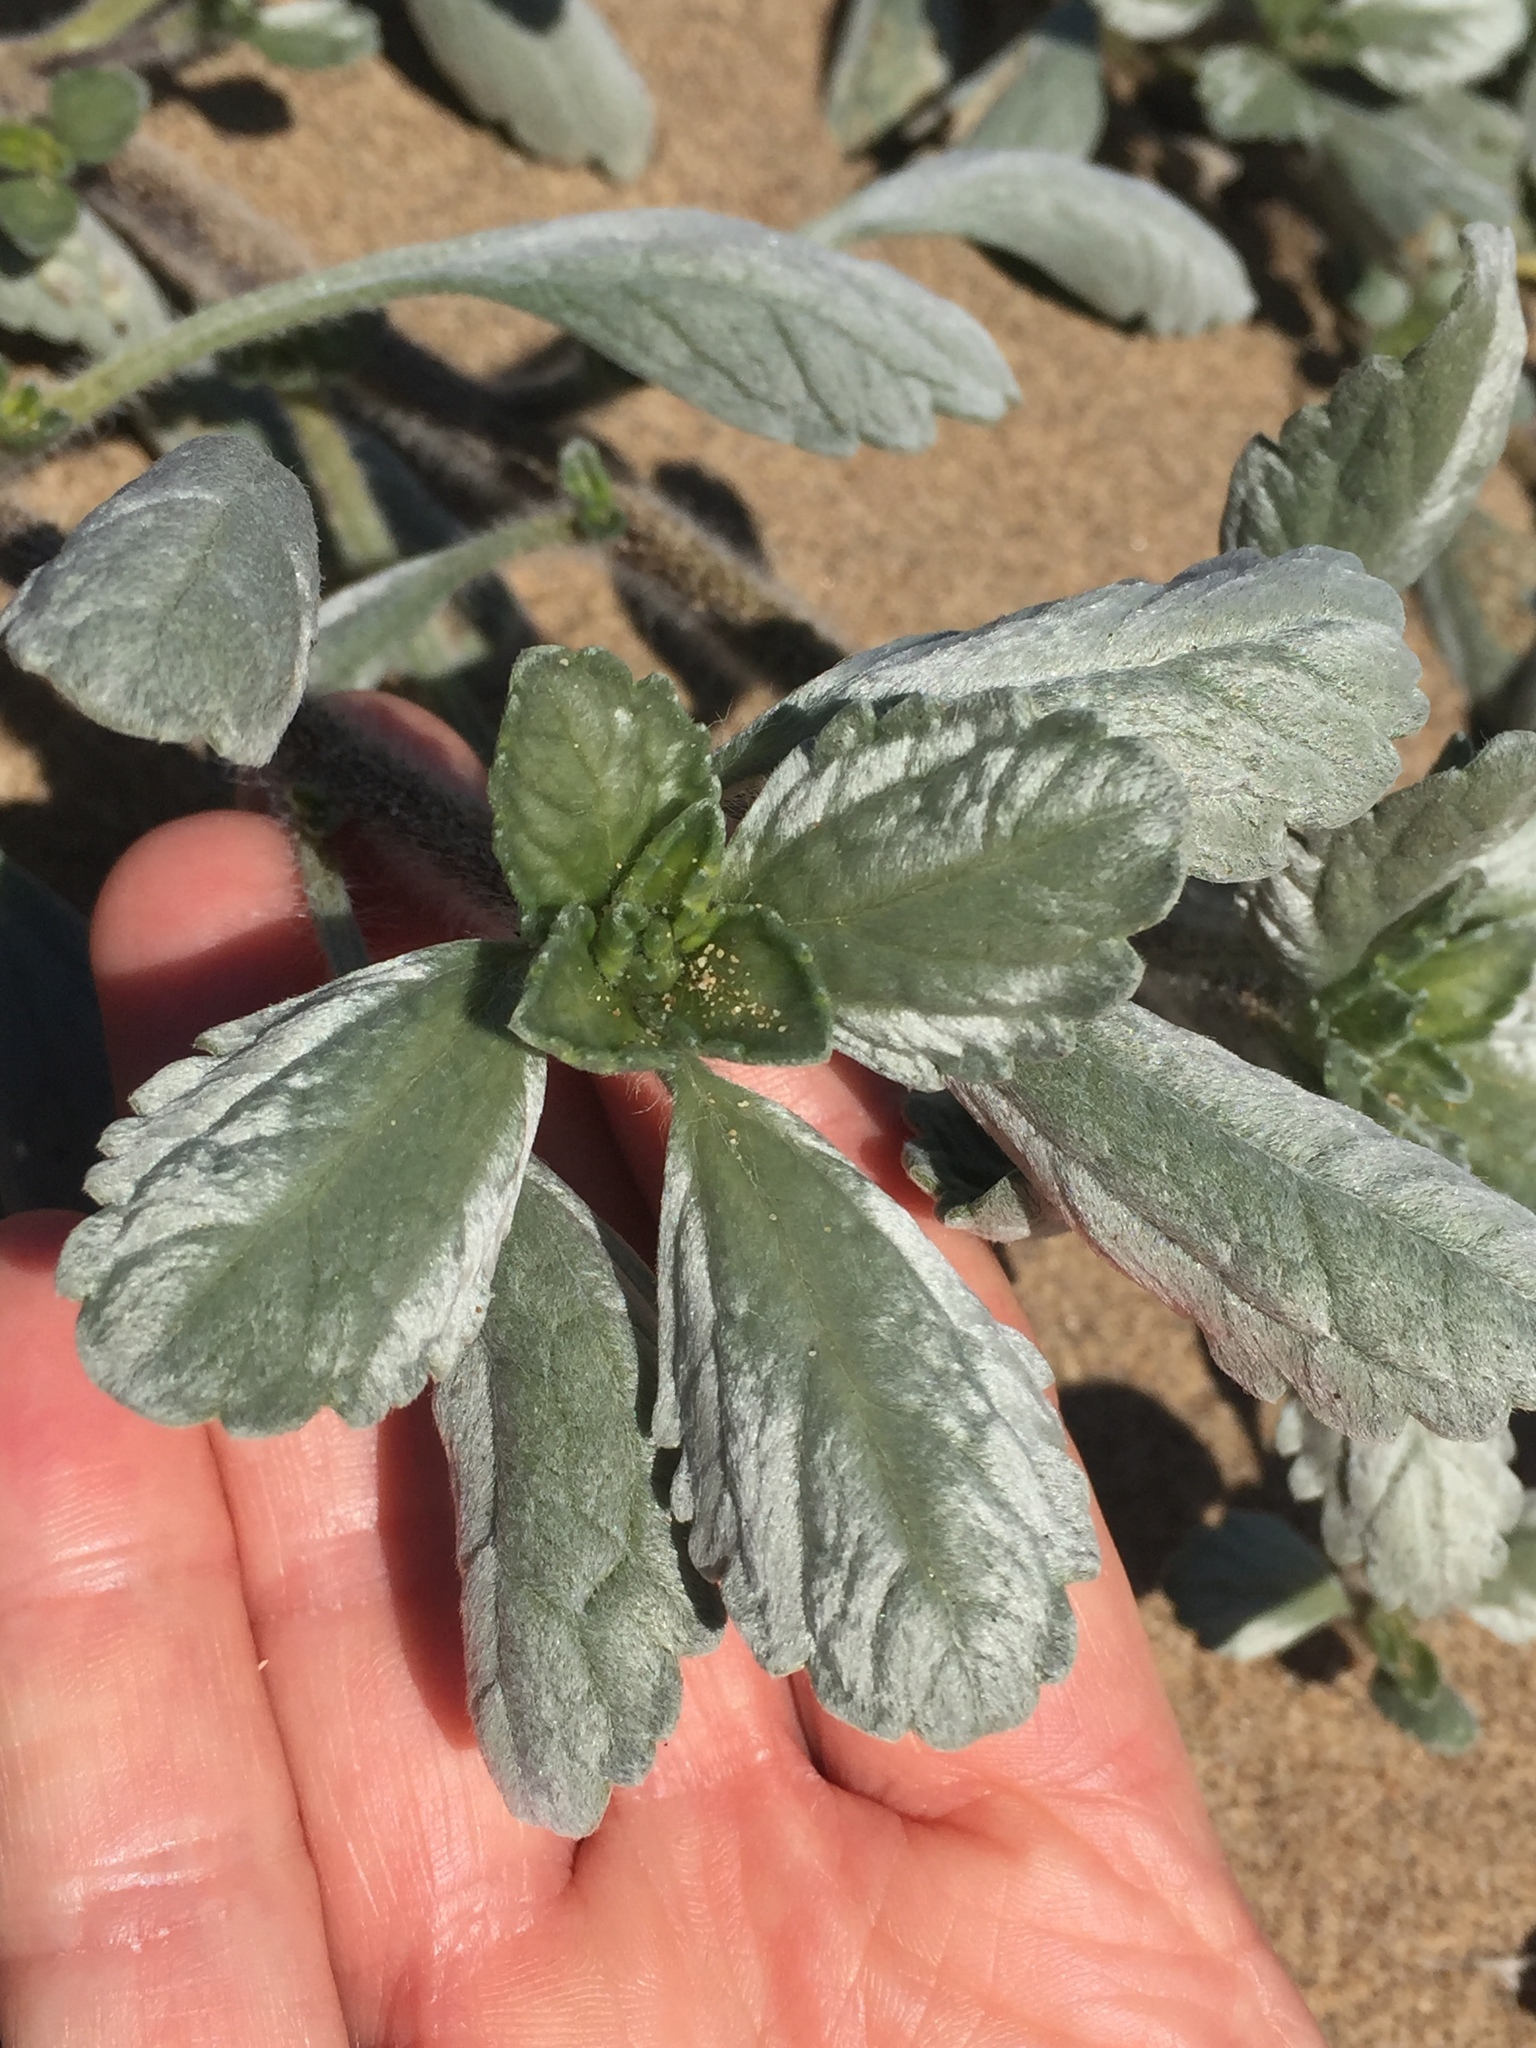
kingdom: Plantae
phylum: Tracheophyta
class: Magnoliopsida
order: Asterales
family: Asteraceae
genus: Ambrosia
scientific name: Ambrosia chamissonis
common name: Beachbur
